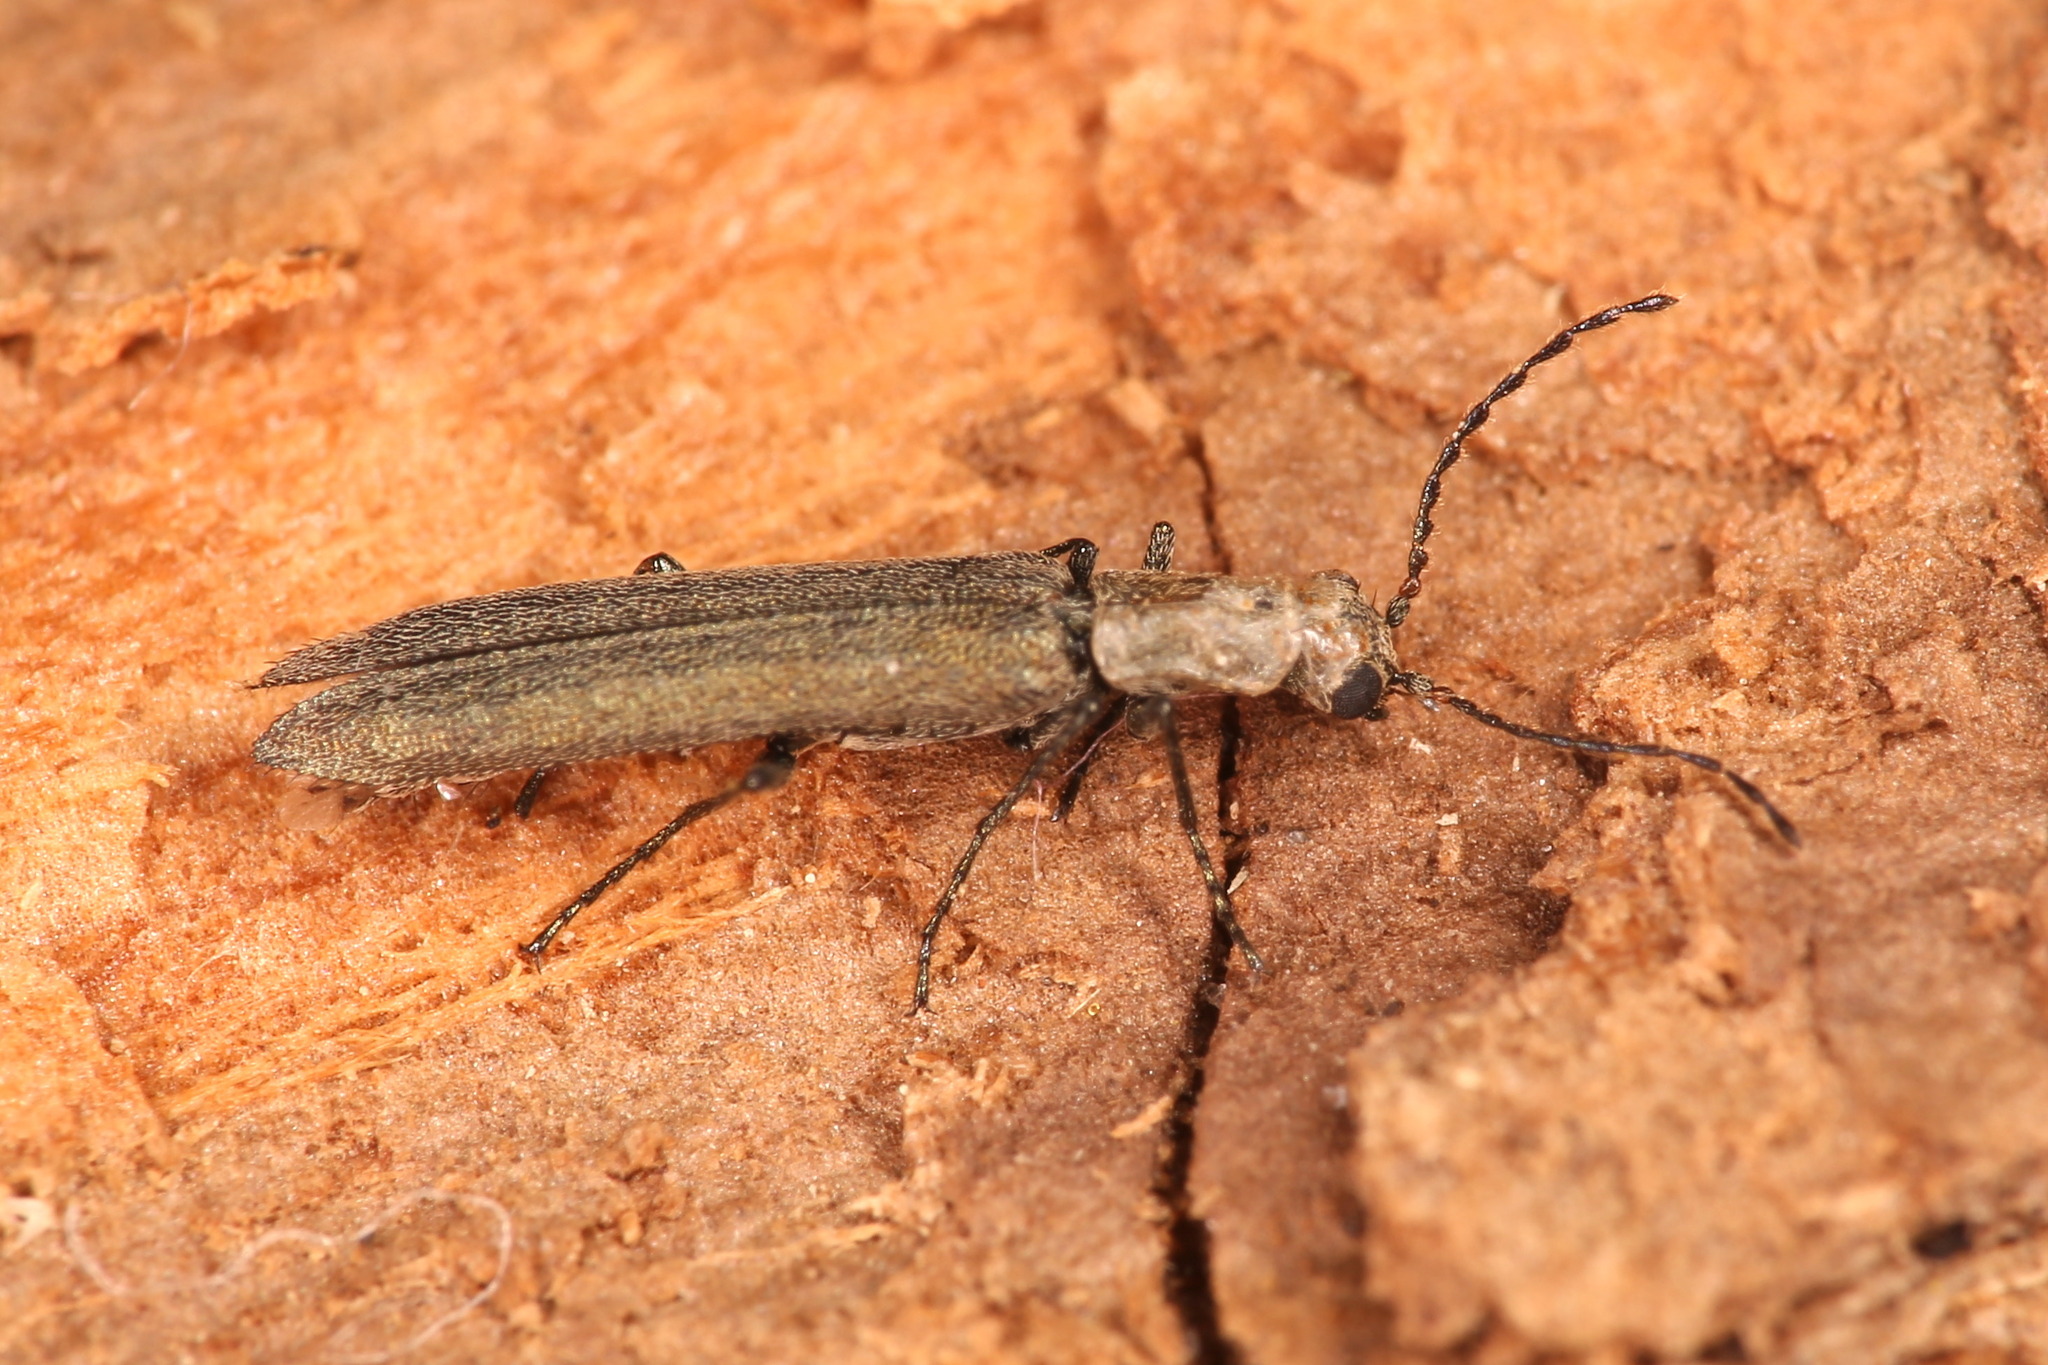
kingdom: Animalia
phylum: Arthropoda
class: Insecta
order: Coleoptera
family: Melyridae
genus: Dolichosoma
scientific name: Dolichosoma lineare
